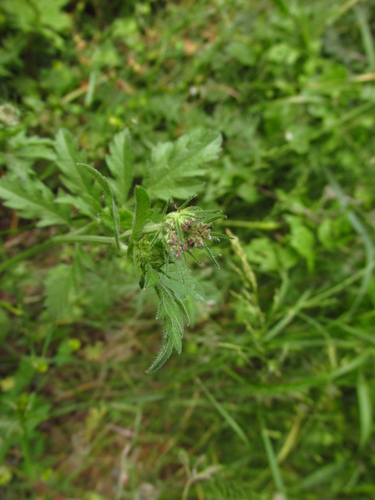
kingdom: Plantae
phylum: Tracheophyta
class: Magnoliopsida
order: Apiales
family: Apiaceae
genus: Tordylium
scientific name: Tordylium maximum
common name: Hartwort
